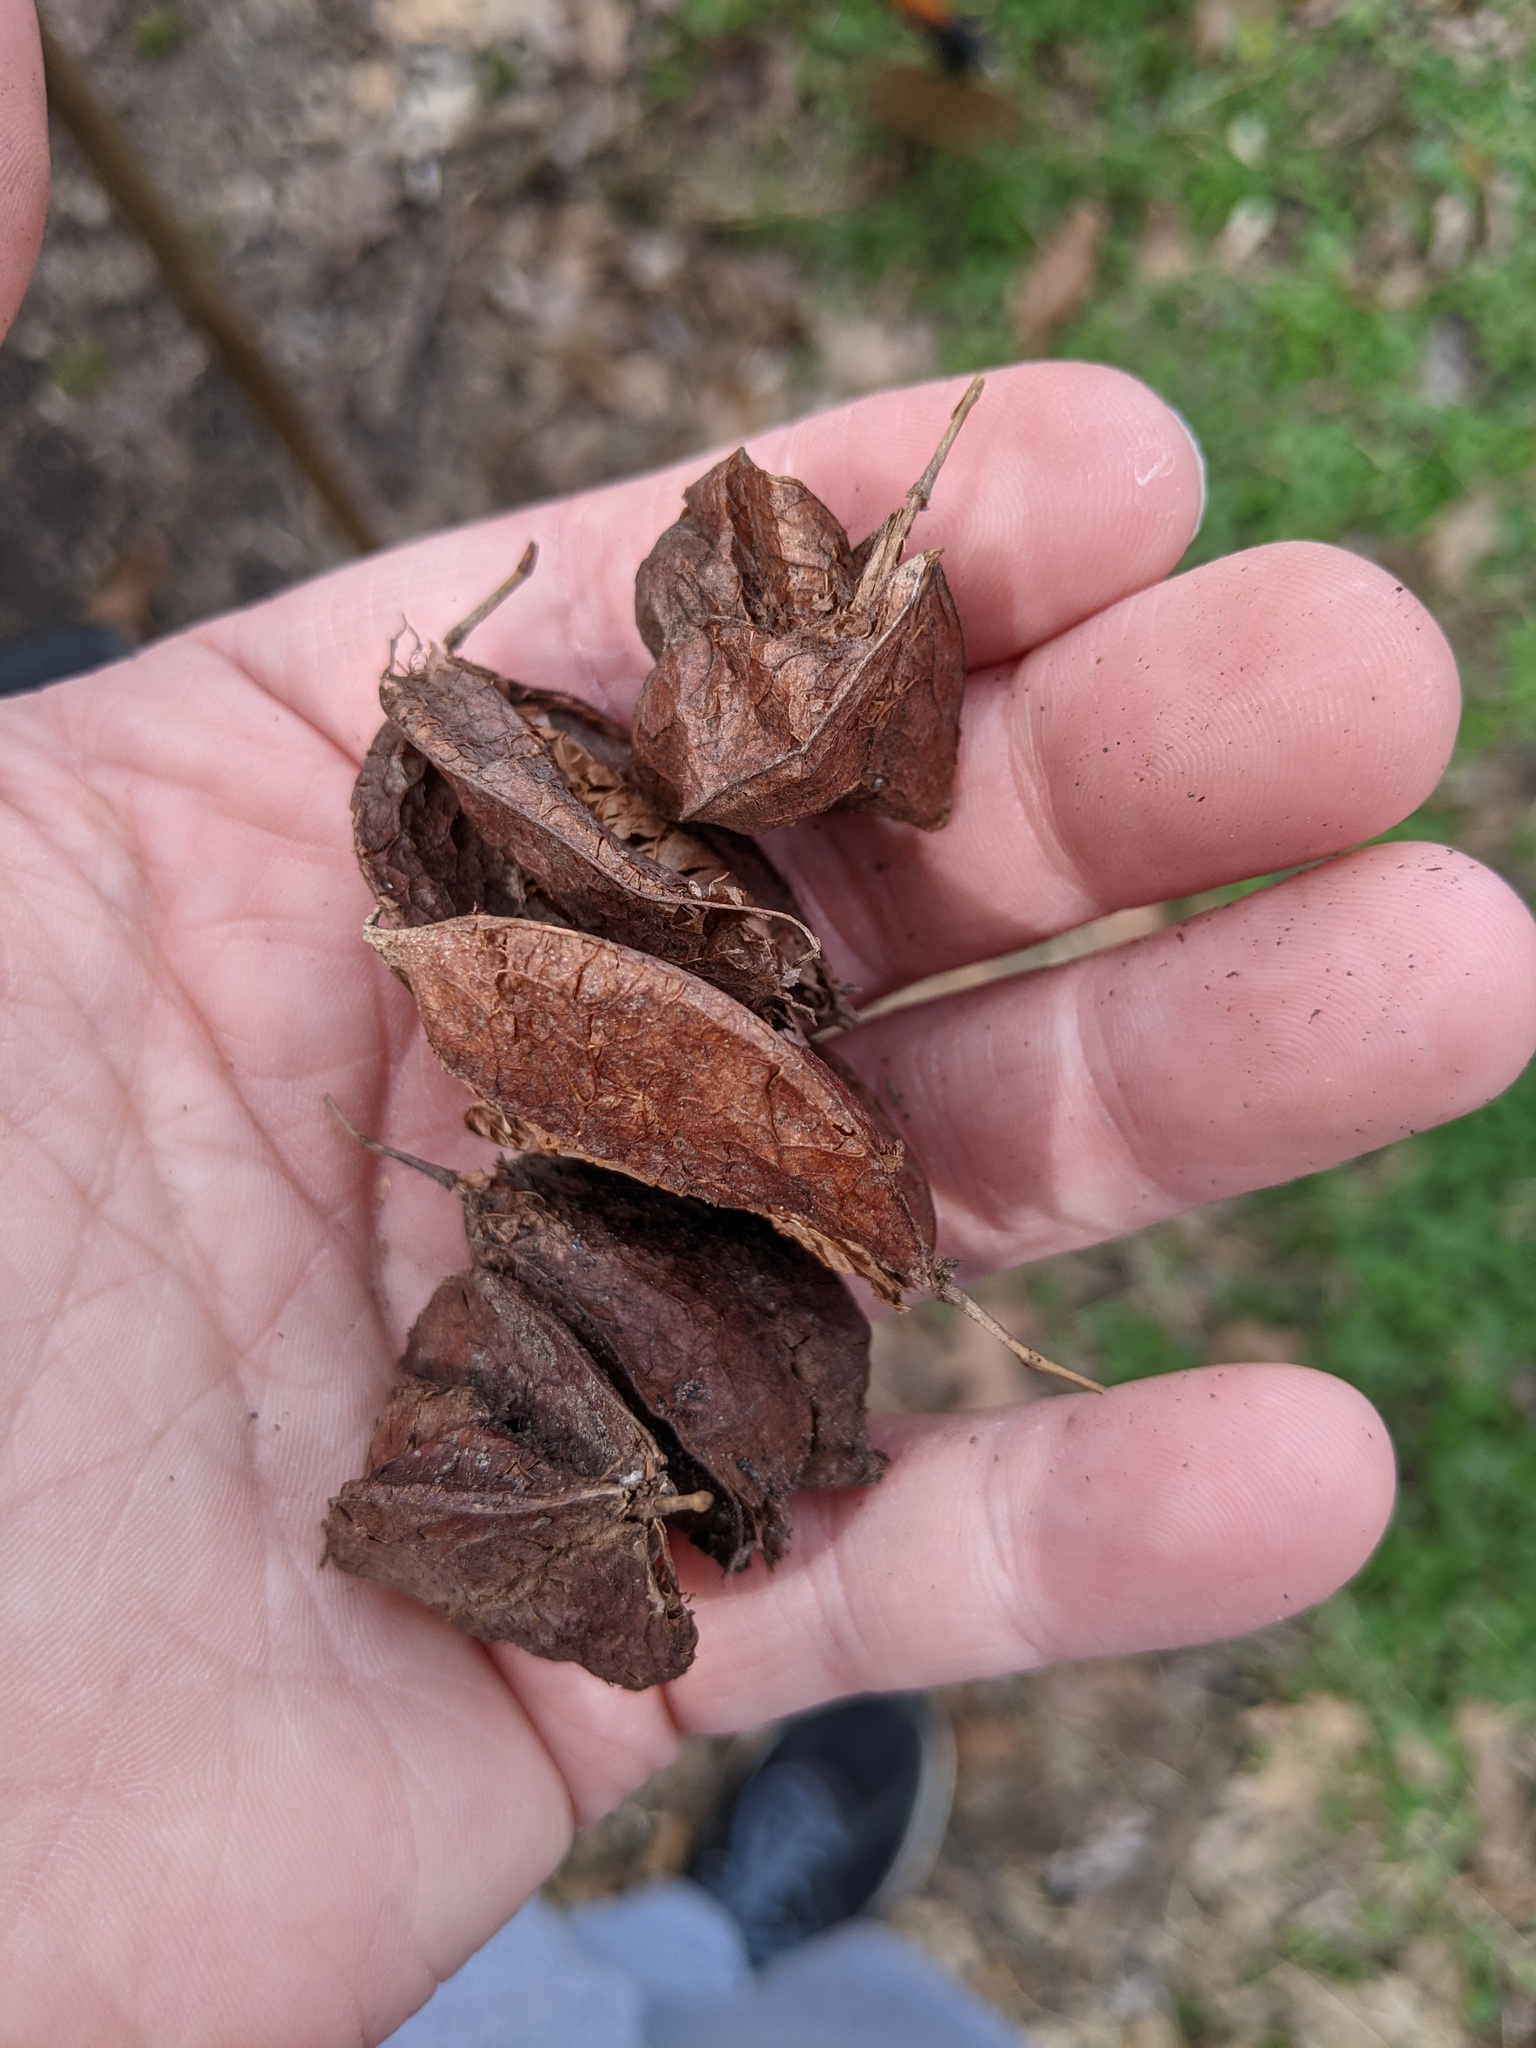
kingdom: Plantae
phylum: Tracheophyta
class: Magnoliopsida
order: Crossosomatales
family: Staphyleaceae
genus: Staphylea
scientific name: Staphylea trifolia
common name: American bladdernut
